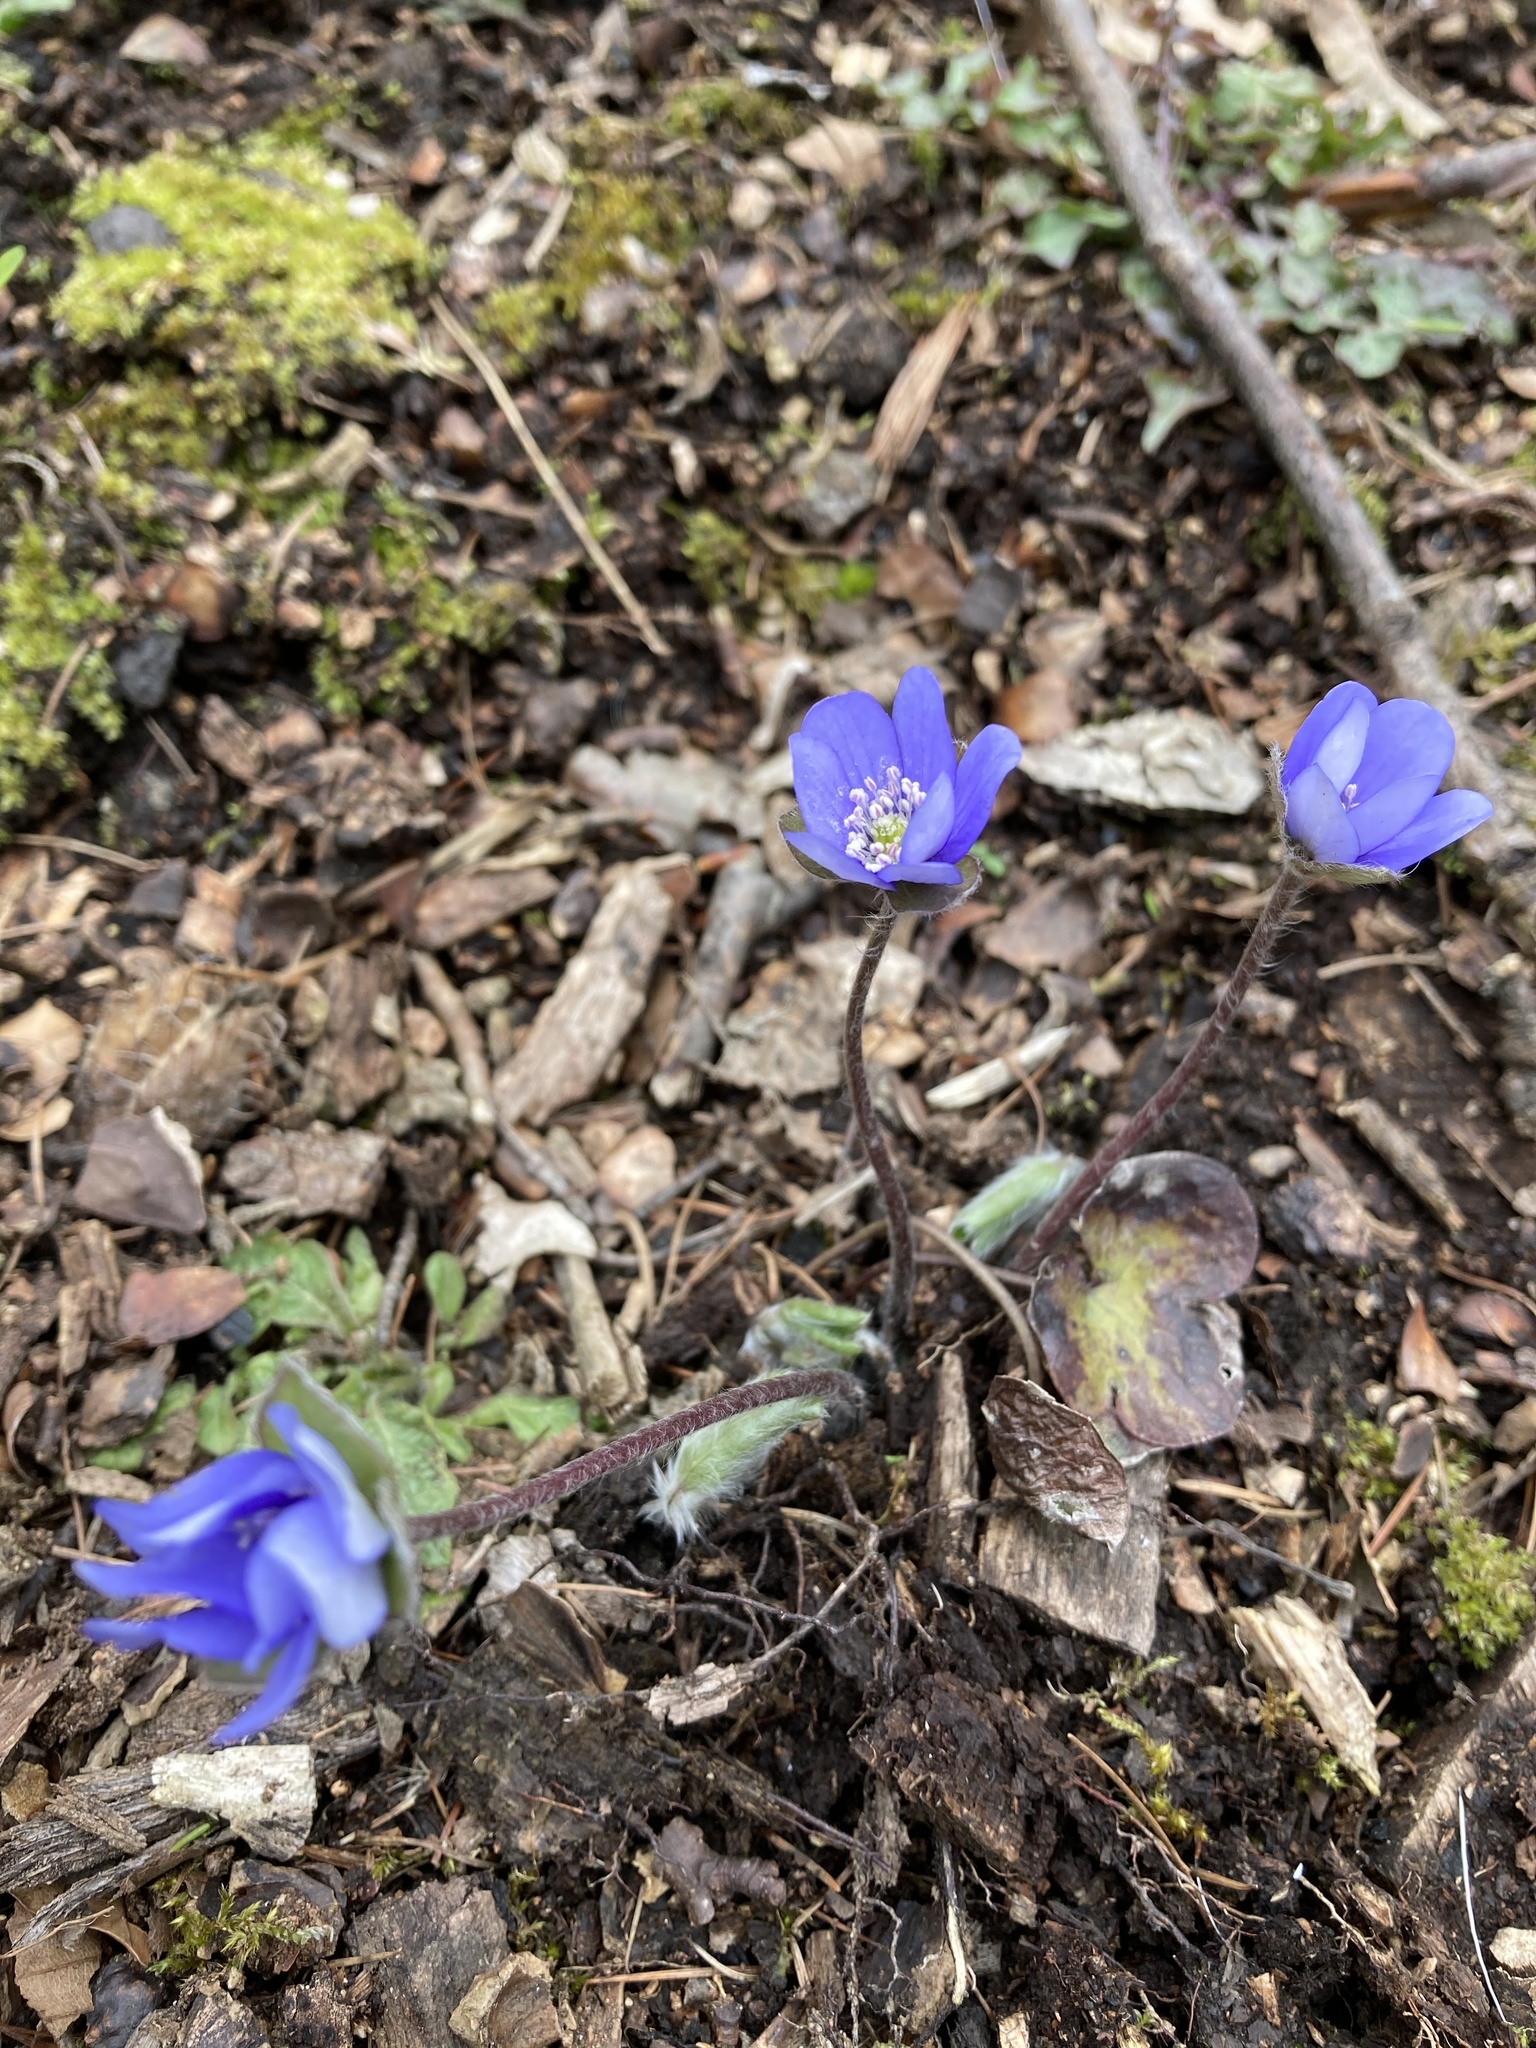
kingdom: Plantae
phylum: Tracheophyta
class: Magnoliopsida
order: Ranunculales
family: Ranunculaceae
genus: Hepatica
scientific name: Hepatica nobilis
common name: Liverleaf
